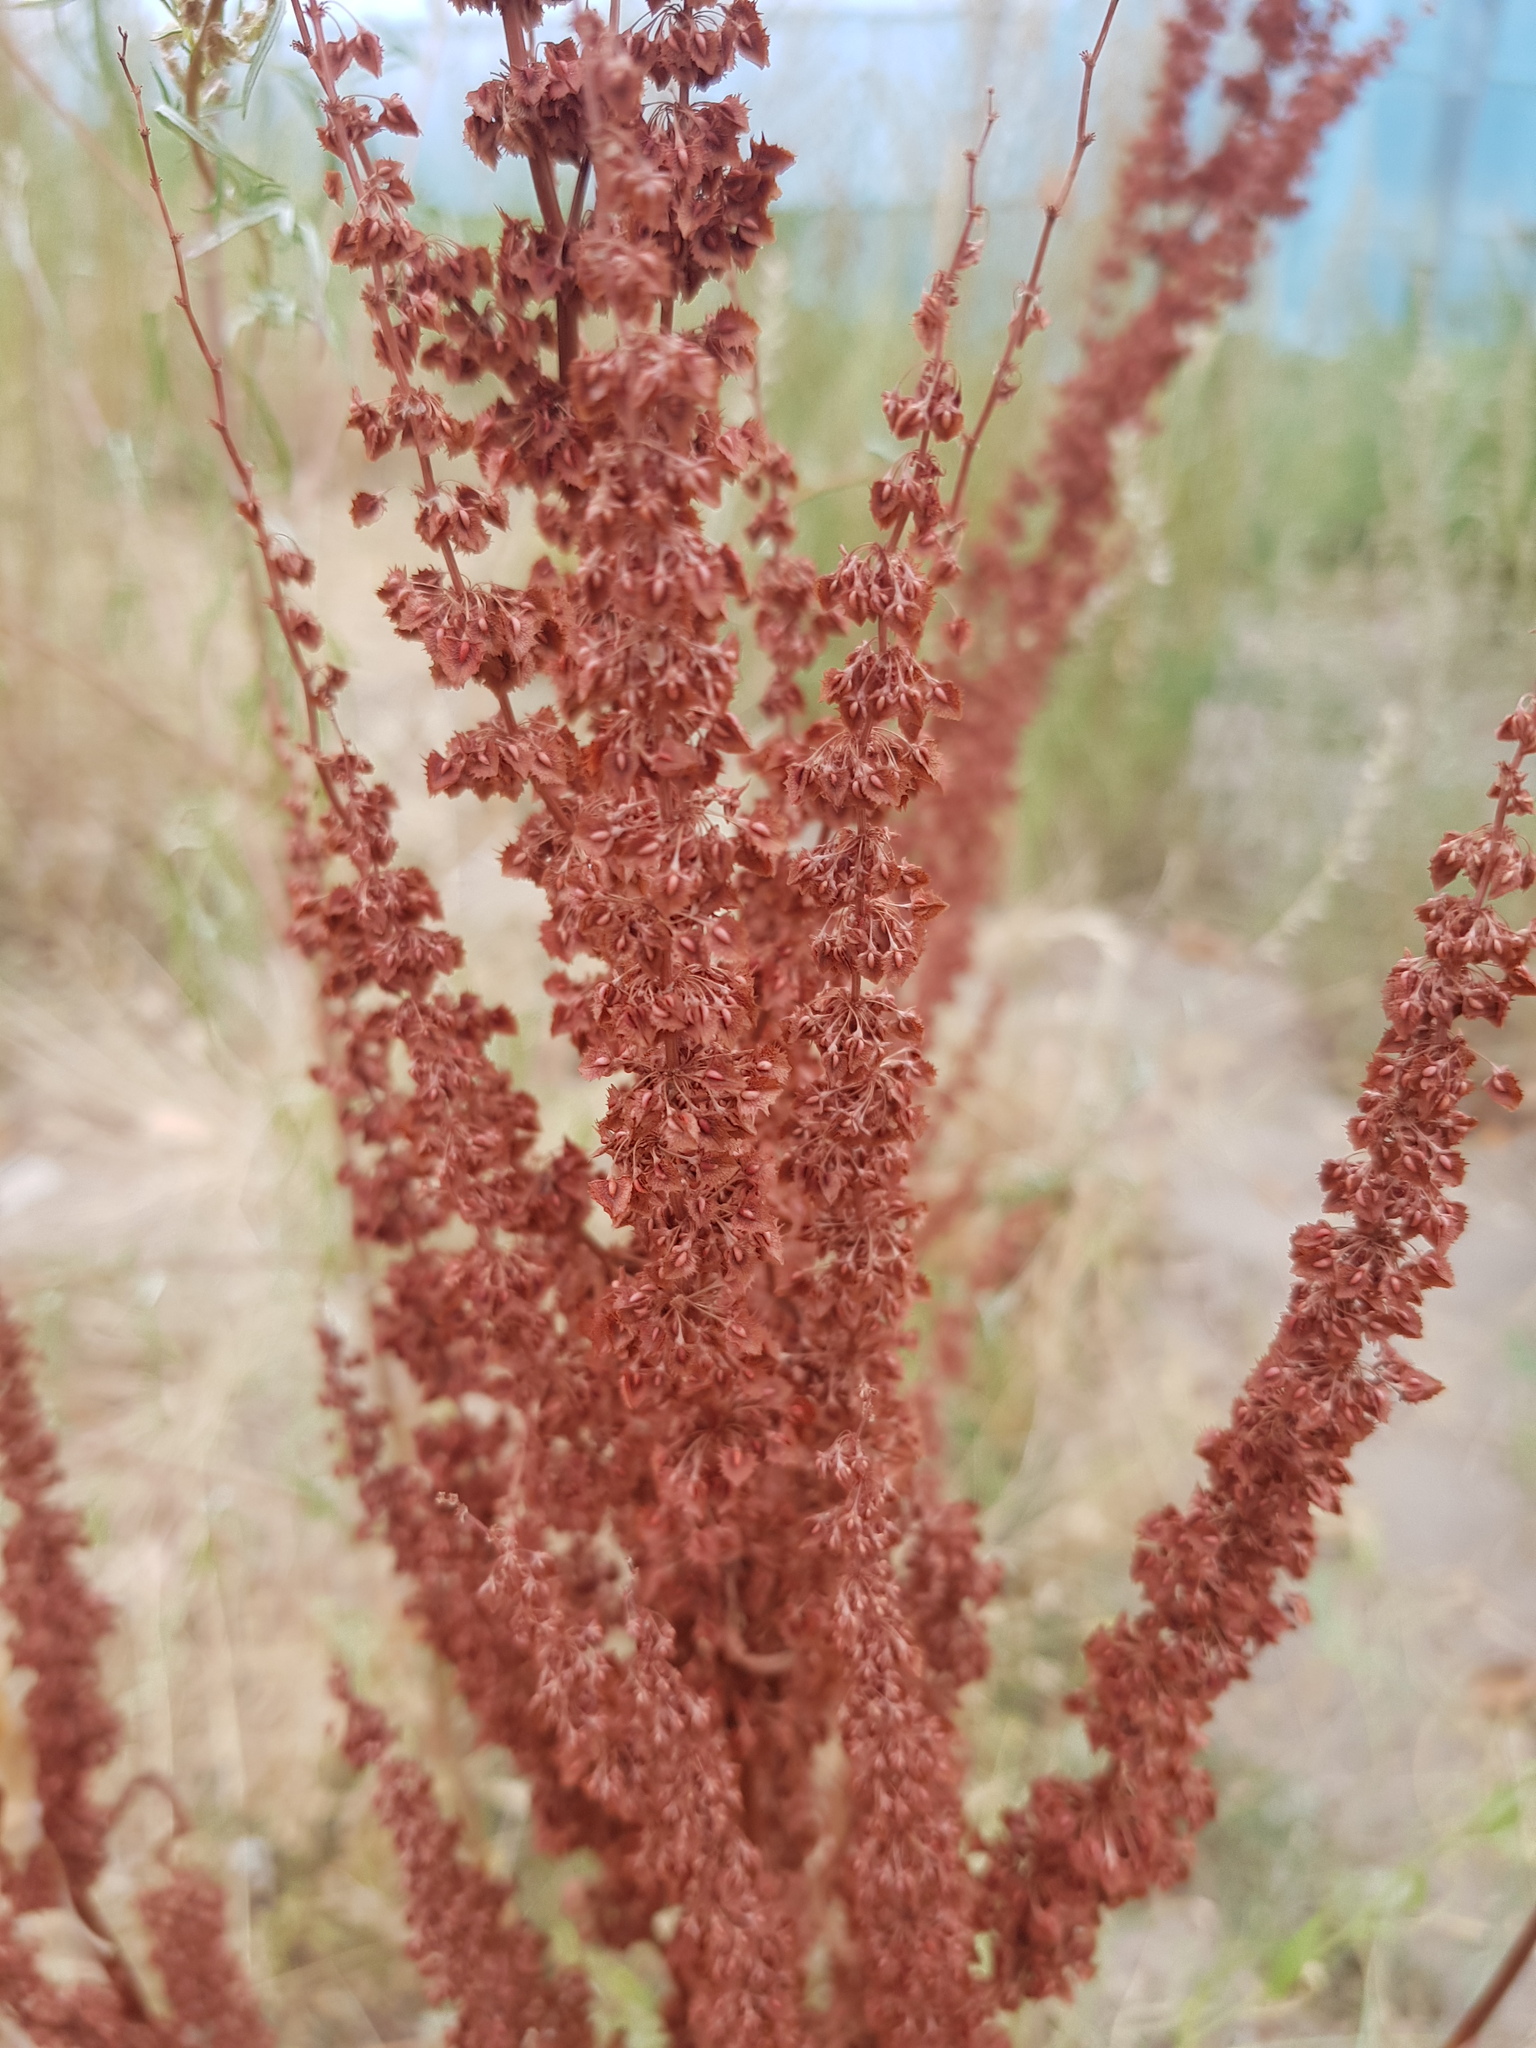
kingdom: Plantae
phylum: Tracheophyta
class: Magnoliopsida
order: Caryophyllales
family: Polygonaceae
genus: Rumex
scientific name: Rumex stenophyllus
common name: Narrowleaf dock
